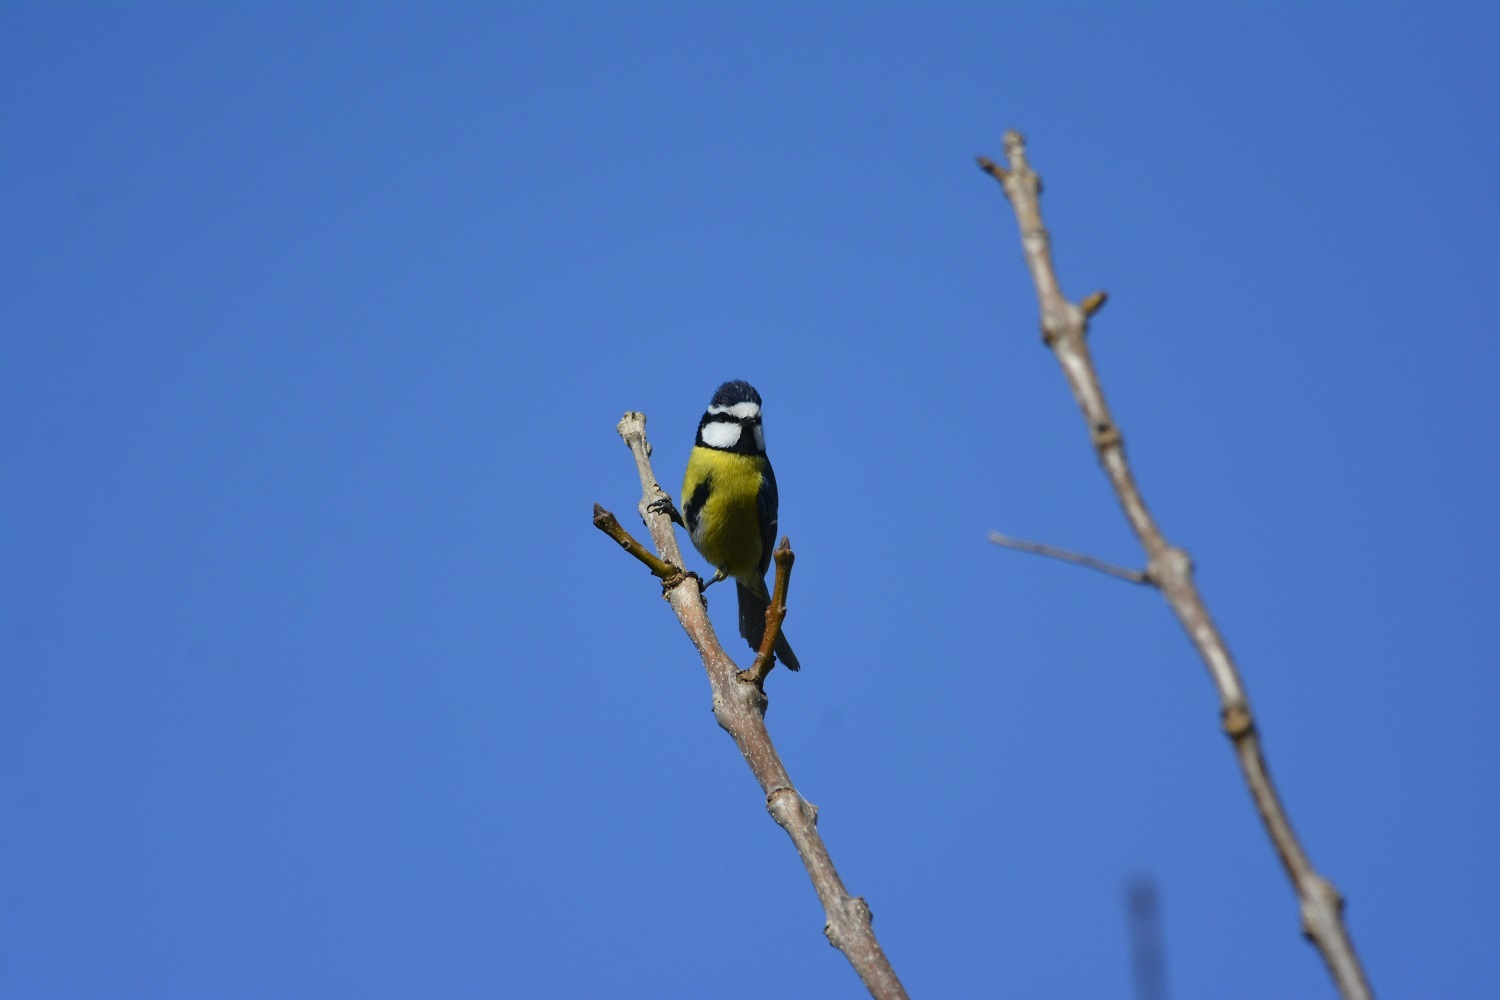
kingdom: Animalia
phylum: Chordata
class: Aves
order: Passeriformes
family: Paridae
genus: Cyanistes
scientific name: Cyanistes teneriffae
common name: African blue tit
